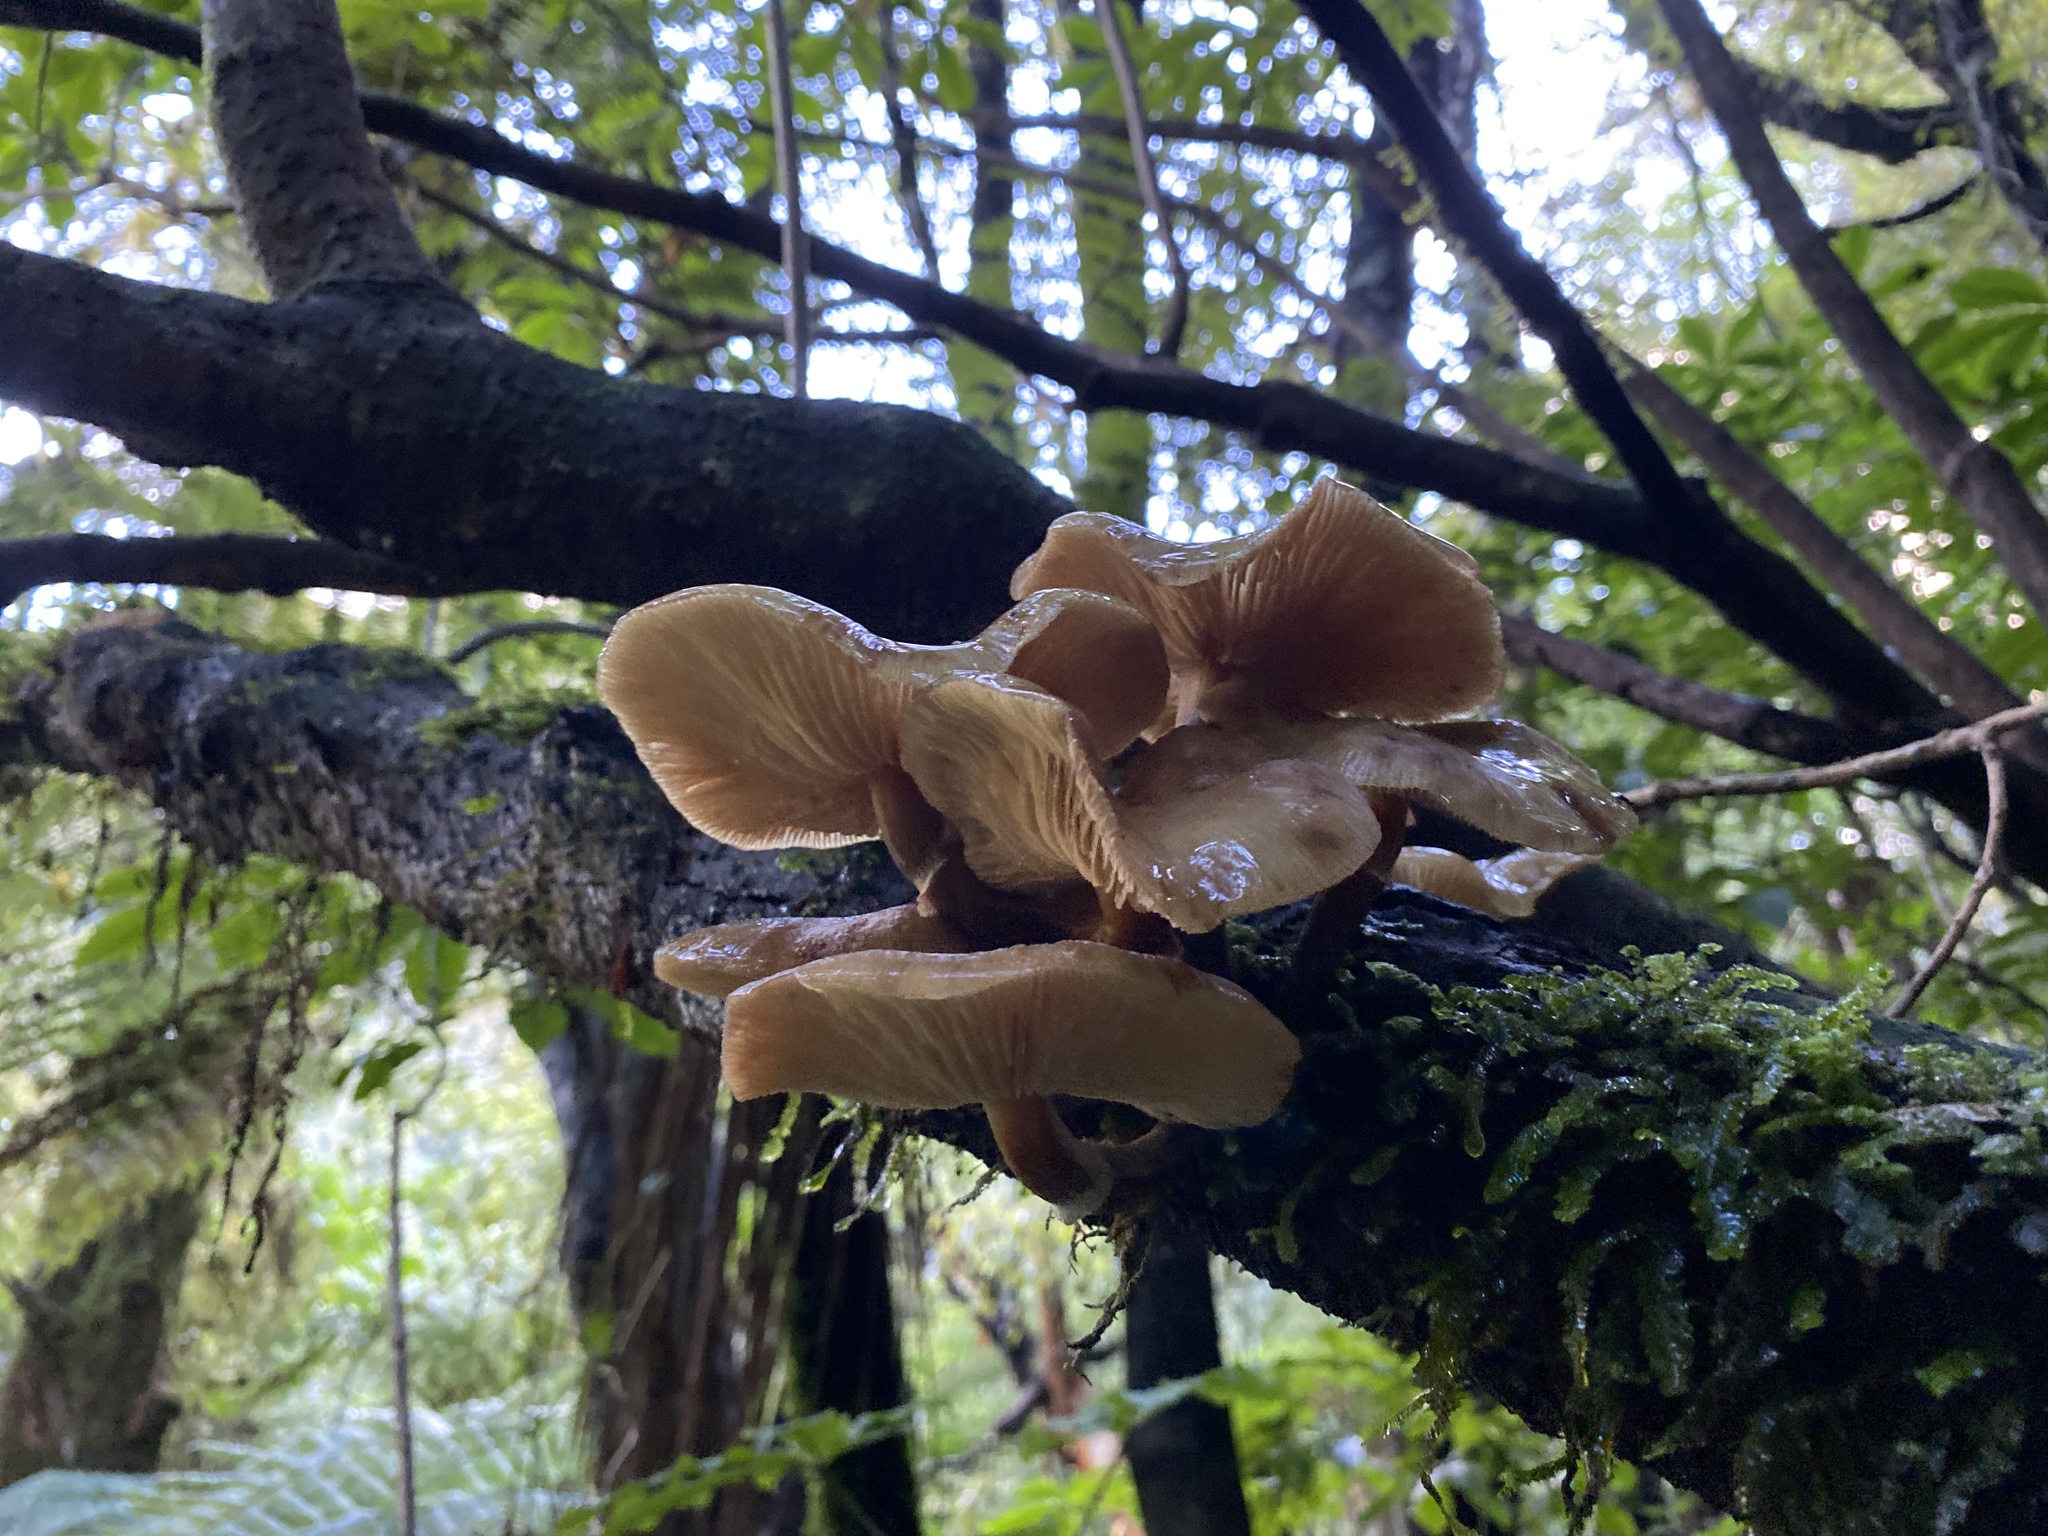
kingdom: Fungi
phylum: Basidiomycota
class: Agaricomycetes
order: Agaricales
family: Physalacriaceae
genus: Armillaria
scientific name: Armillaria novae-zelandiae
